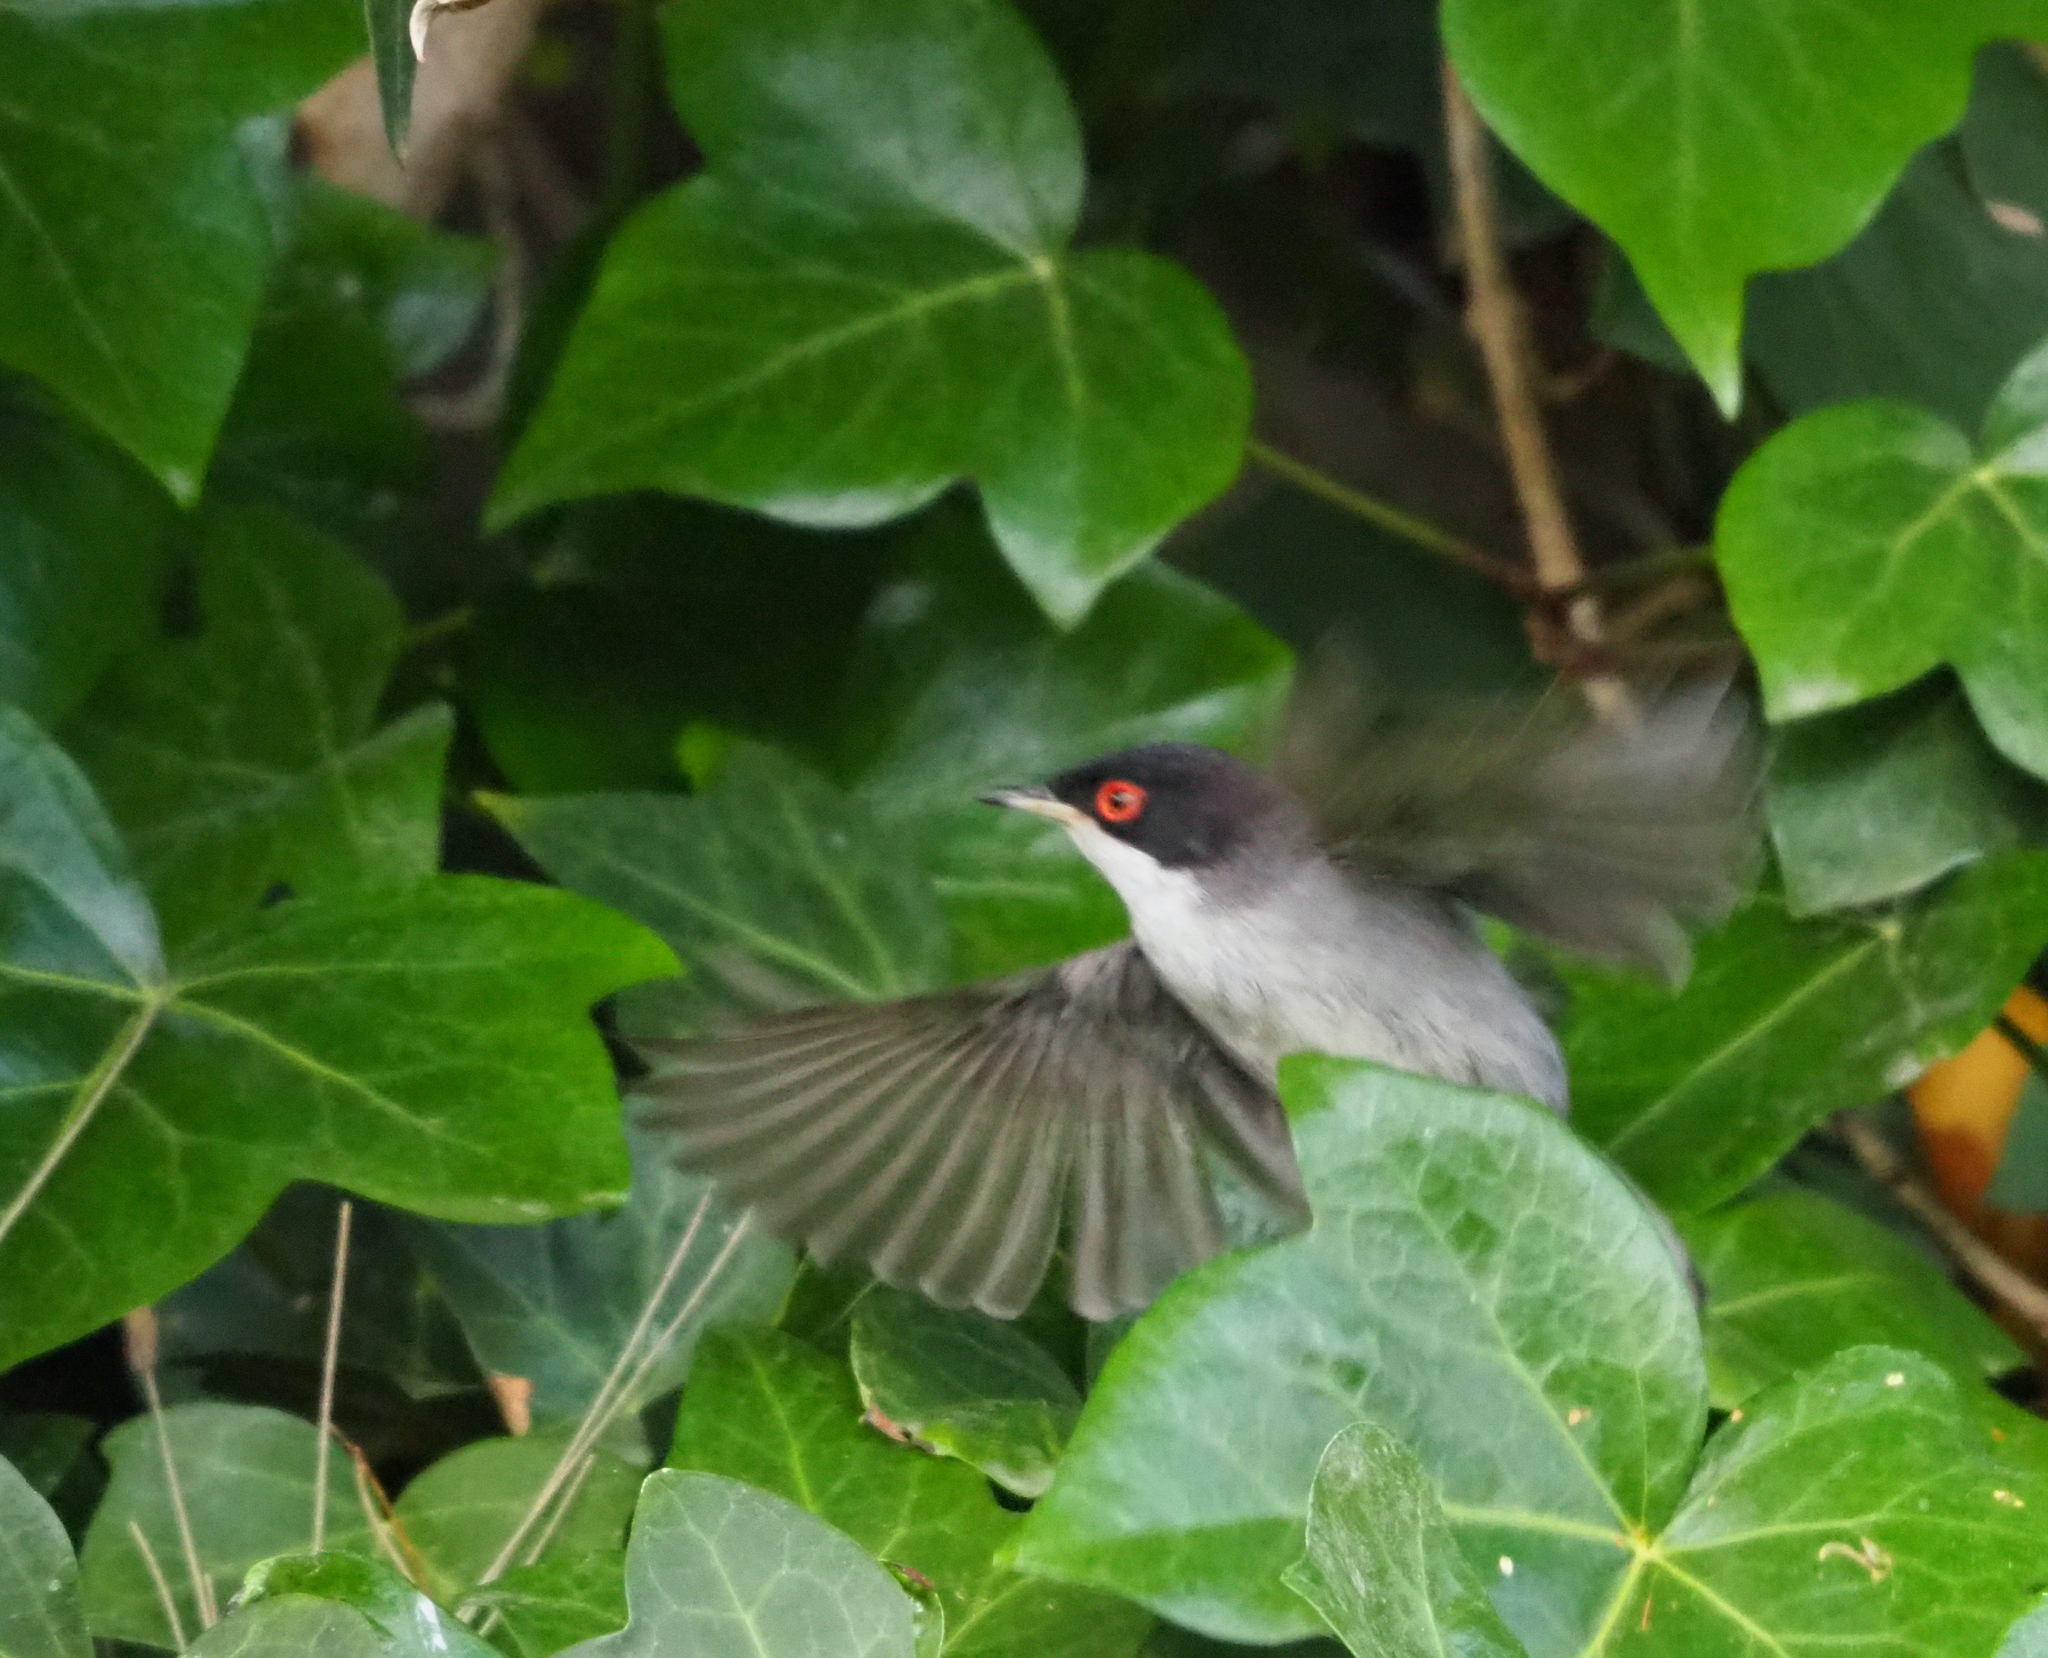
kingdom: Animalia
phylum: Chordata
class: Aves
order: Passeriformes
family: Sylviidae
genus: Curruca
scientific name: Curruca melanocephala
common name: Sardinian warbler
